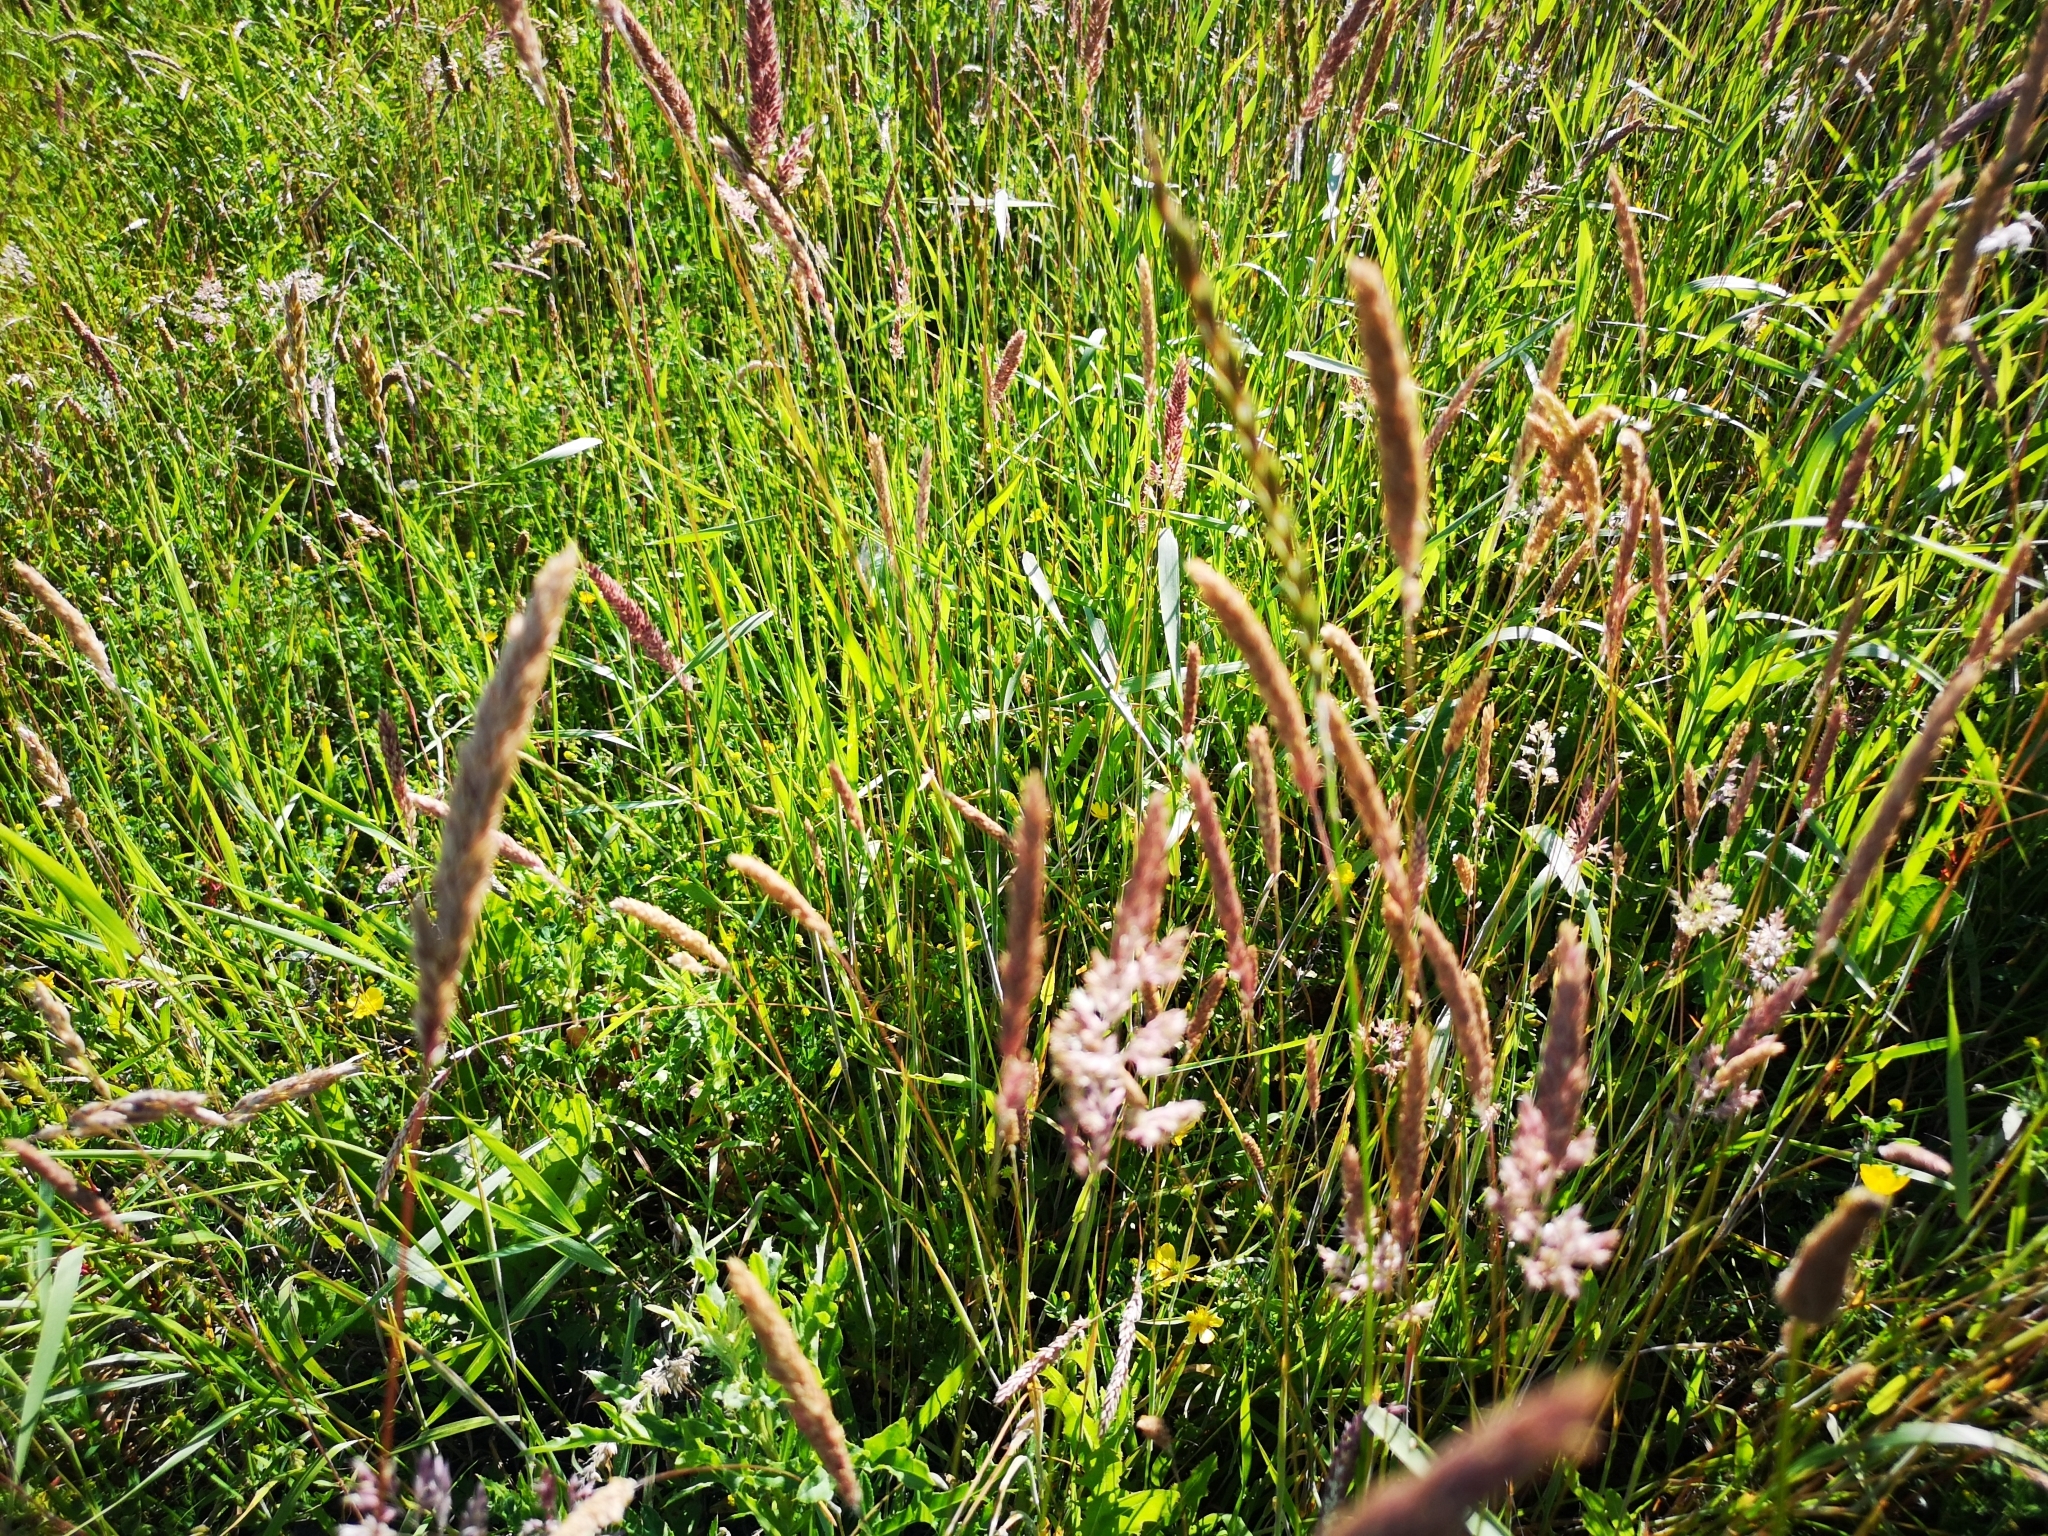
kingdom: Plantae
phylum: Tracheophyta
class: Liliopsida
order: Poales
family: Poaceae
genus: Holcus
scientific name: Holcus lanatus
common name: Yorkshire-fog
